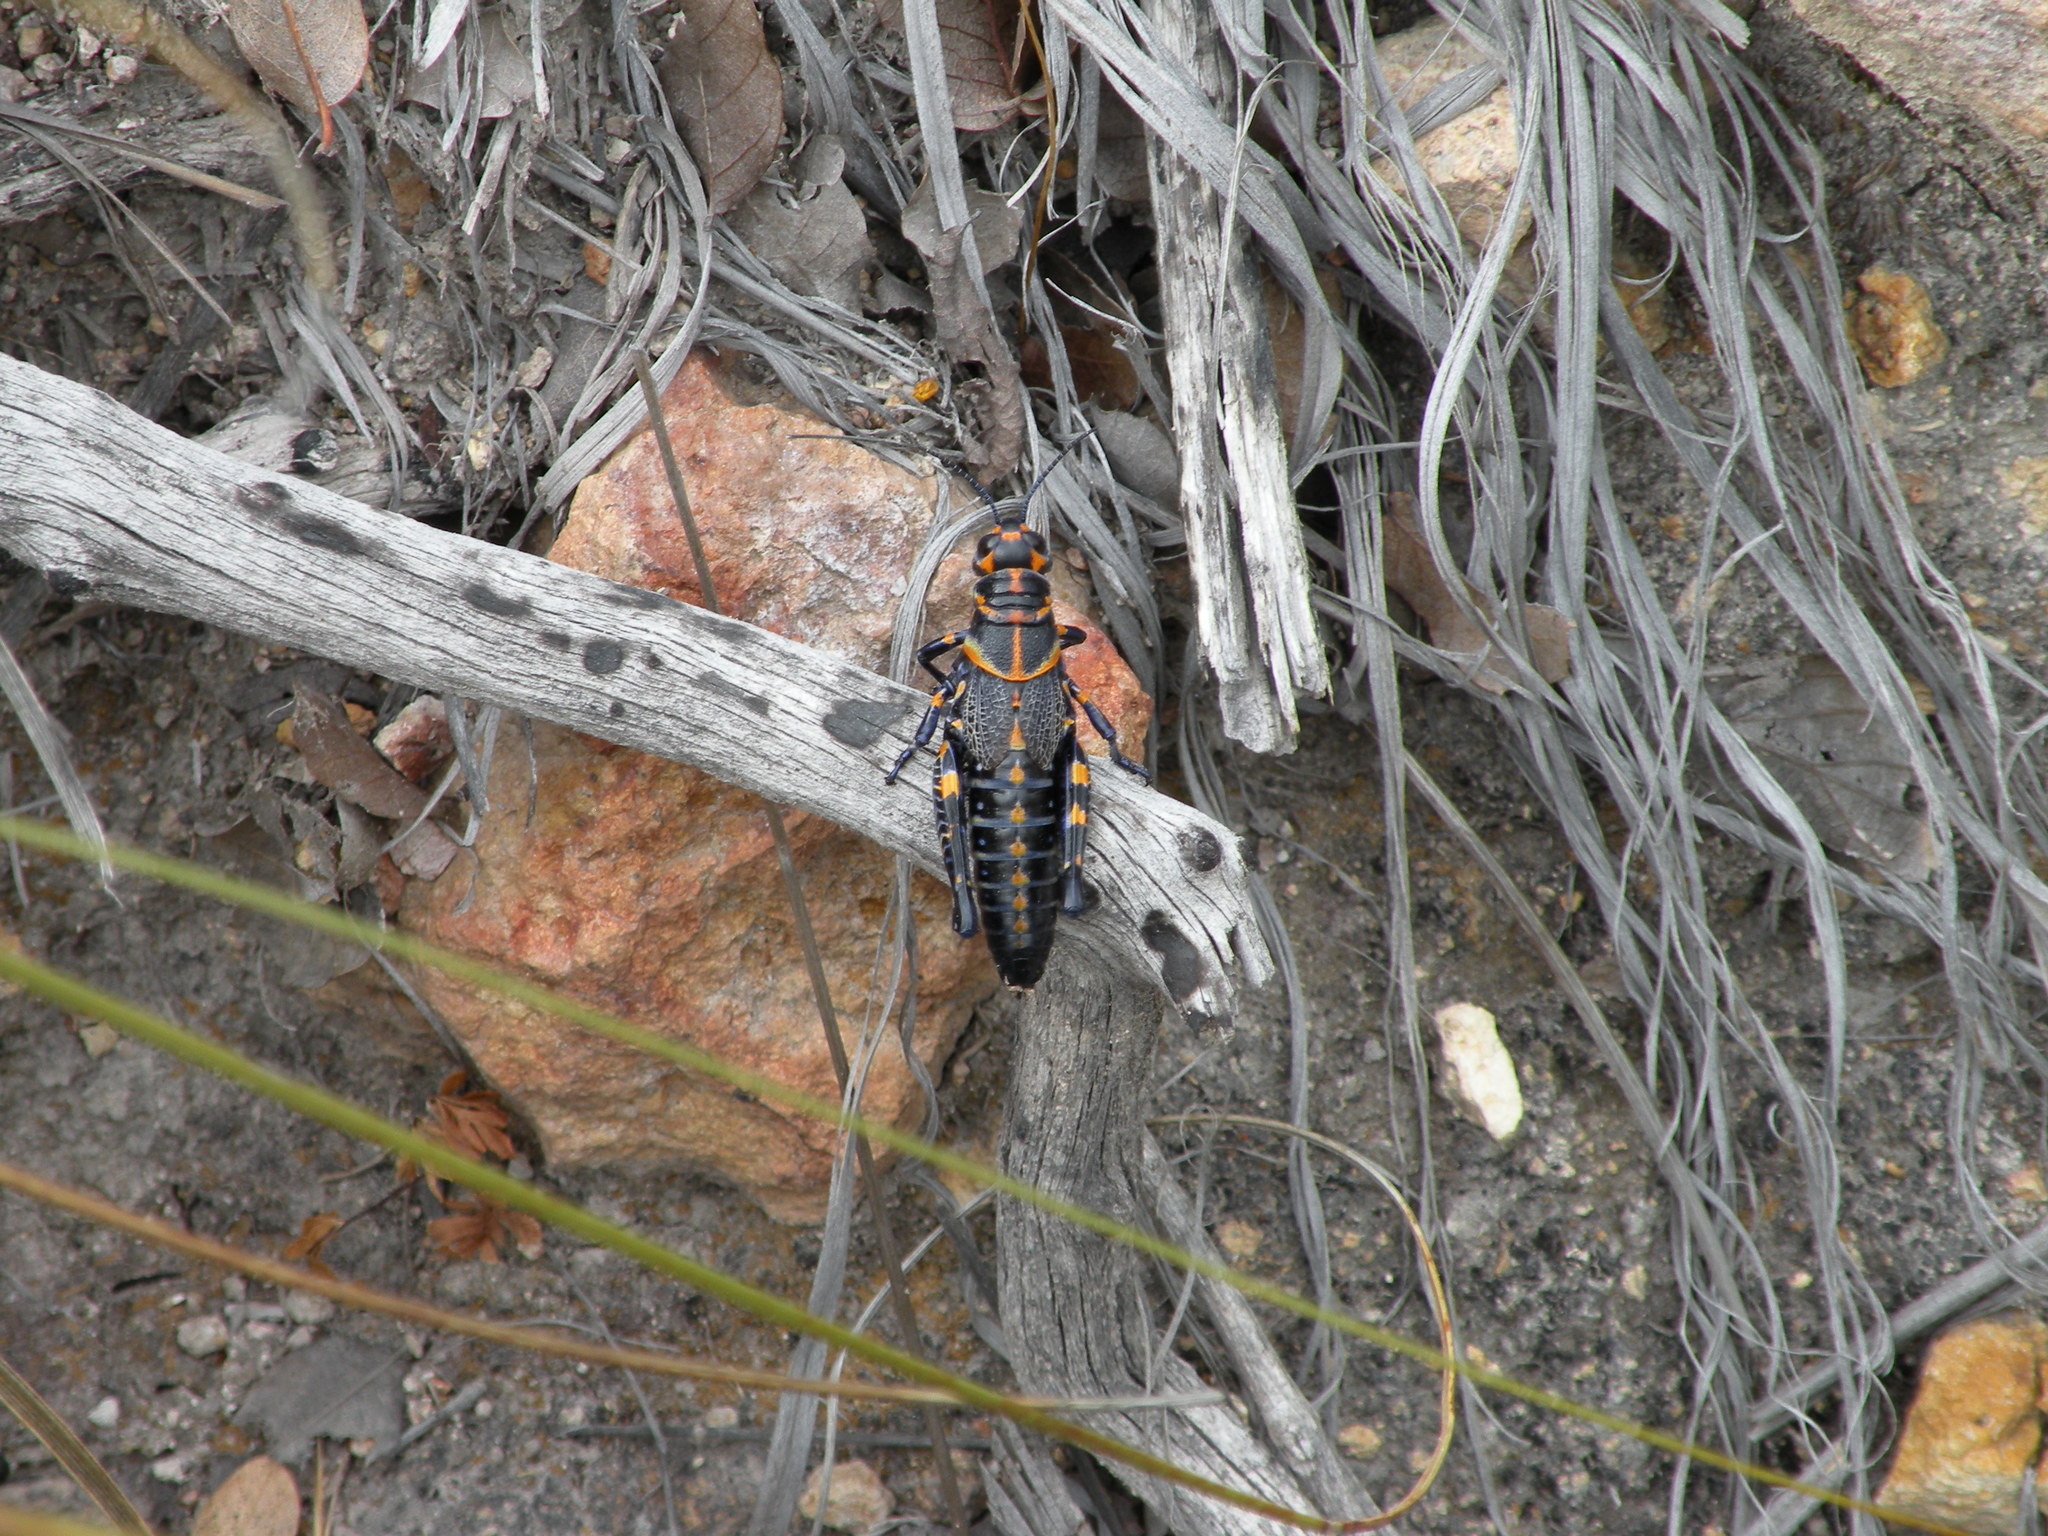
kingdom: Animalia
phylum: Arthropoda
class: Insecta
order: Orthoptera
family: Acrididae
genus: Dactylotum
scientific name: Dactylotum bicolor
